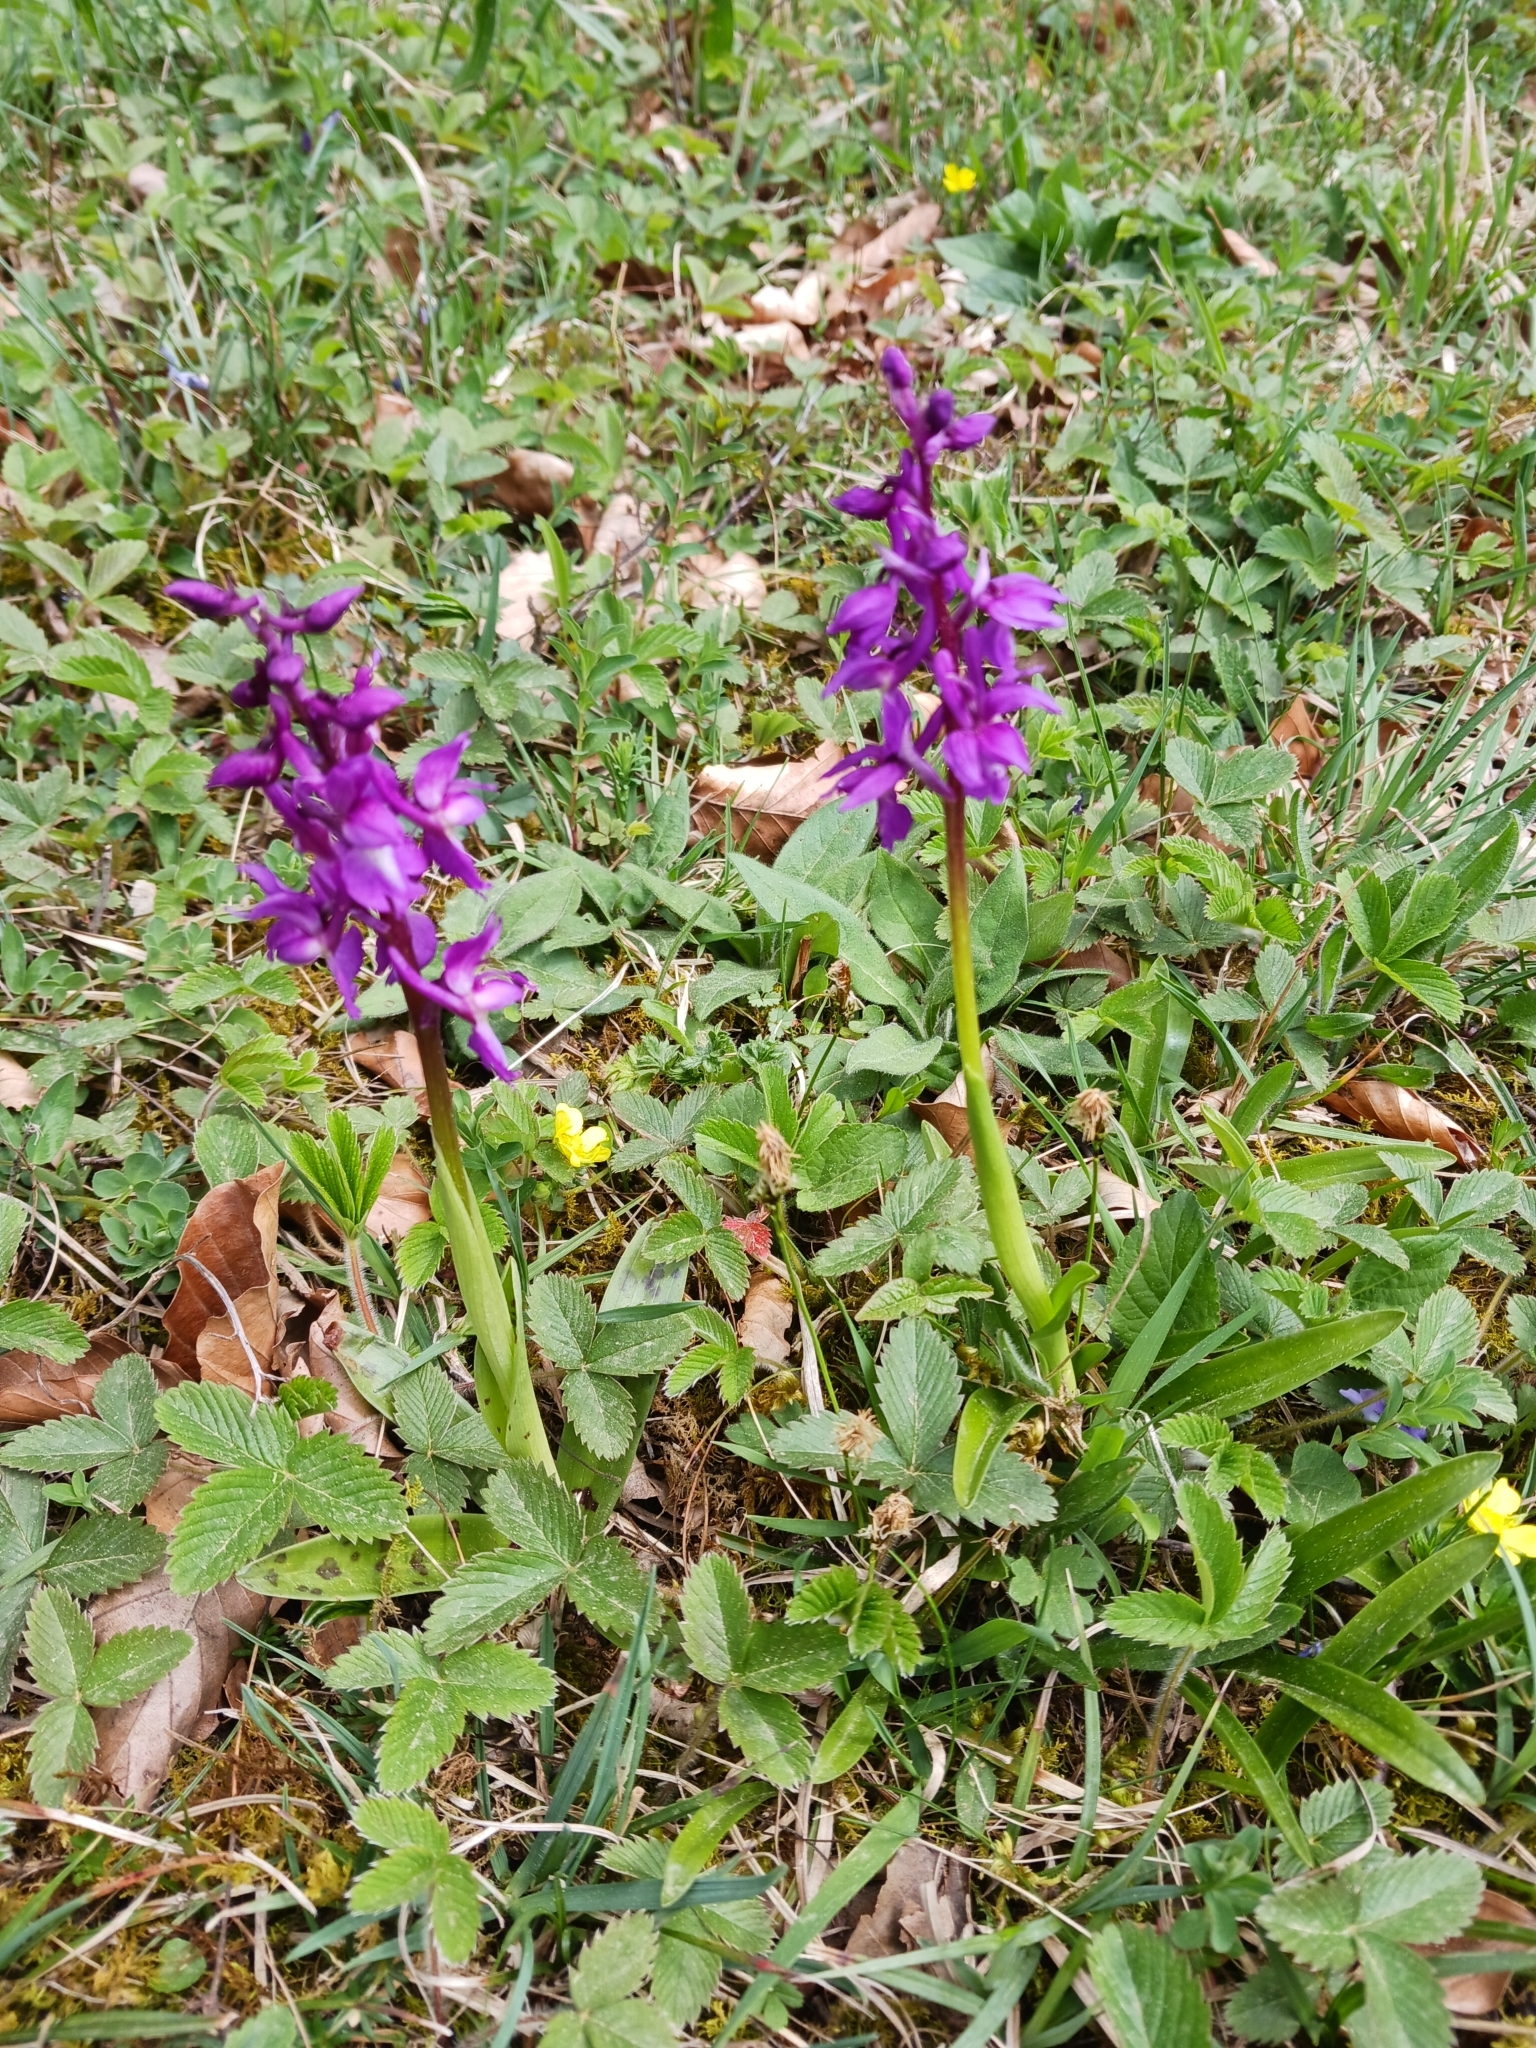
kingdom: Plantae
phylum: Tracheophyta
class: Liliopsida
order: Asparagales
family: Orchidaceae
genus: Orchis
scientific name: Orchis mascula
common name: Early-purple orchid
